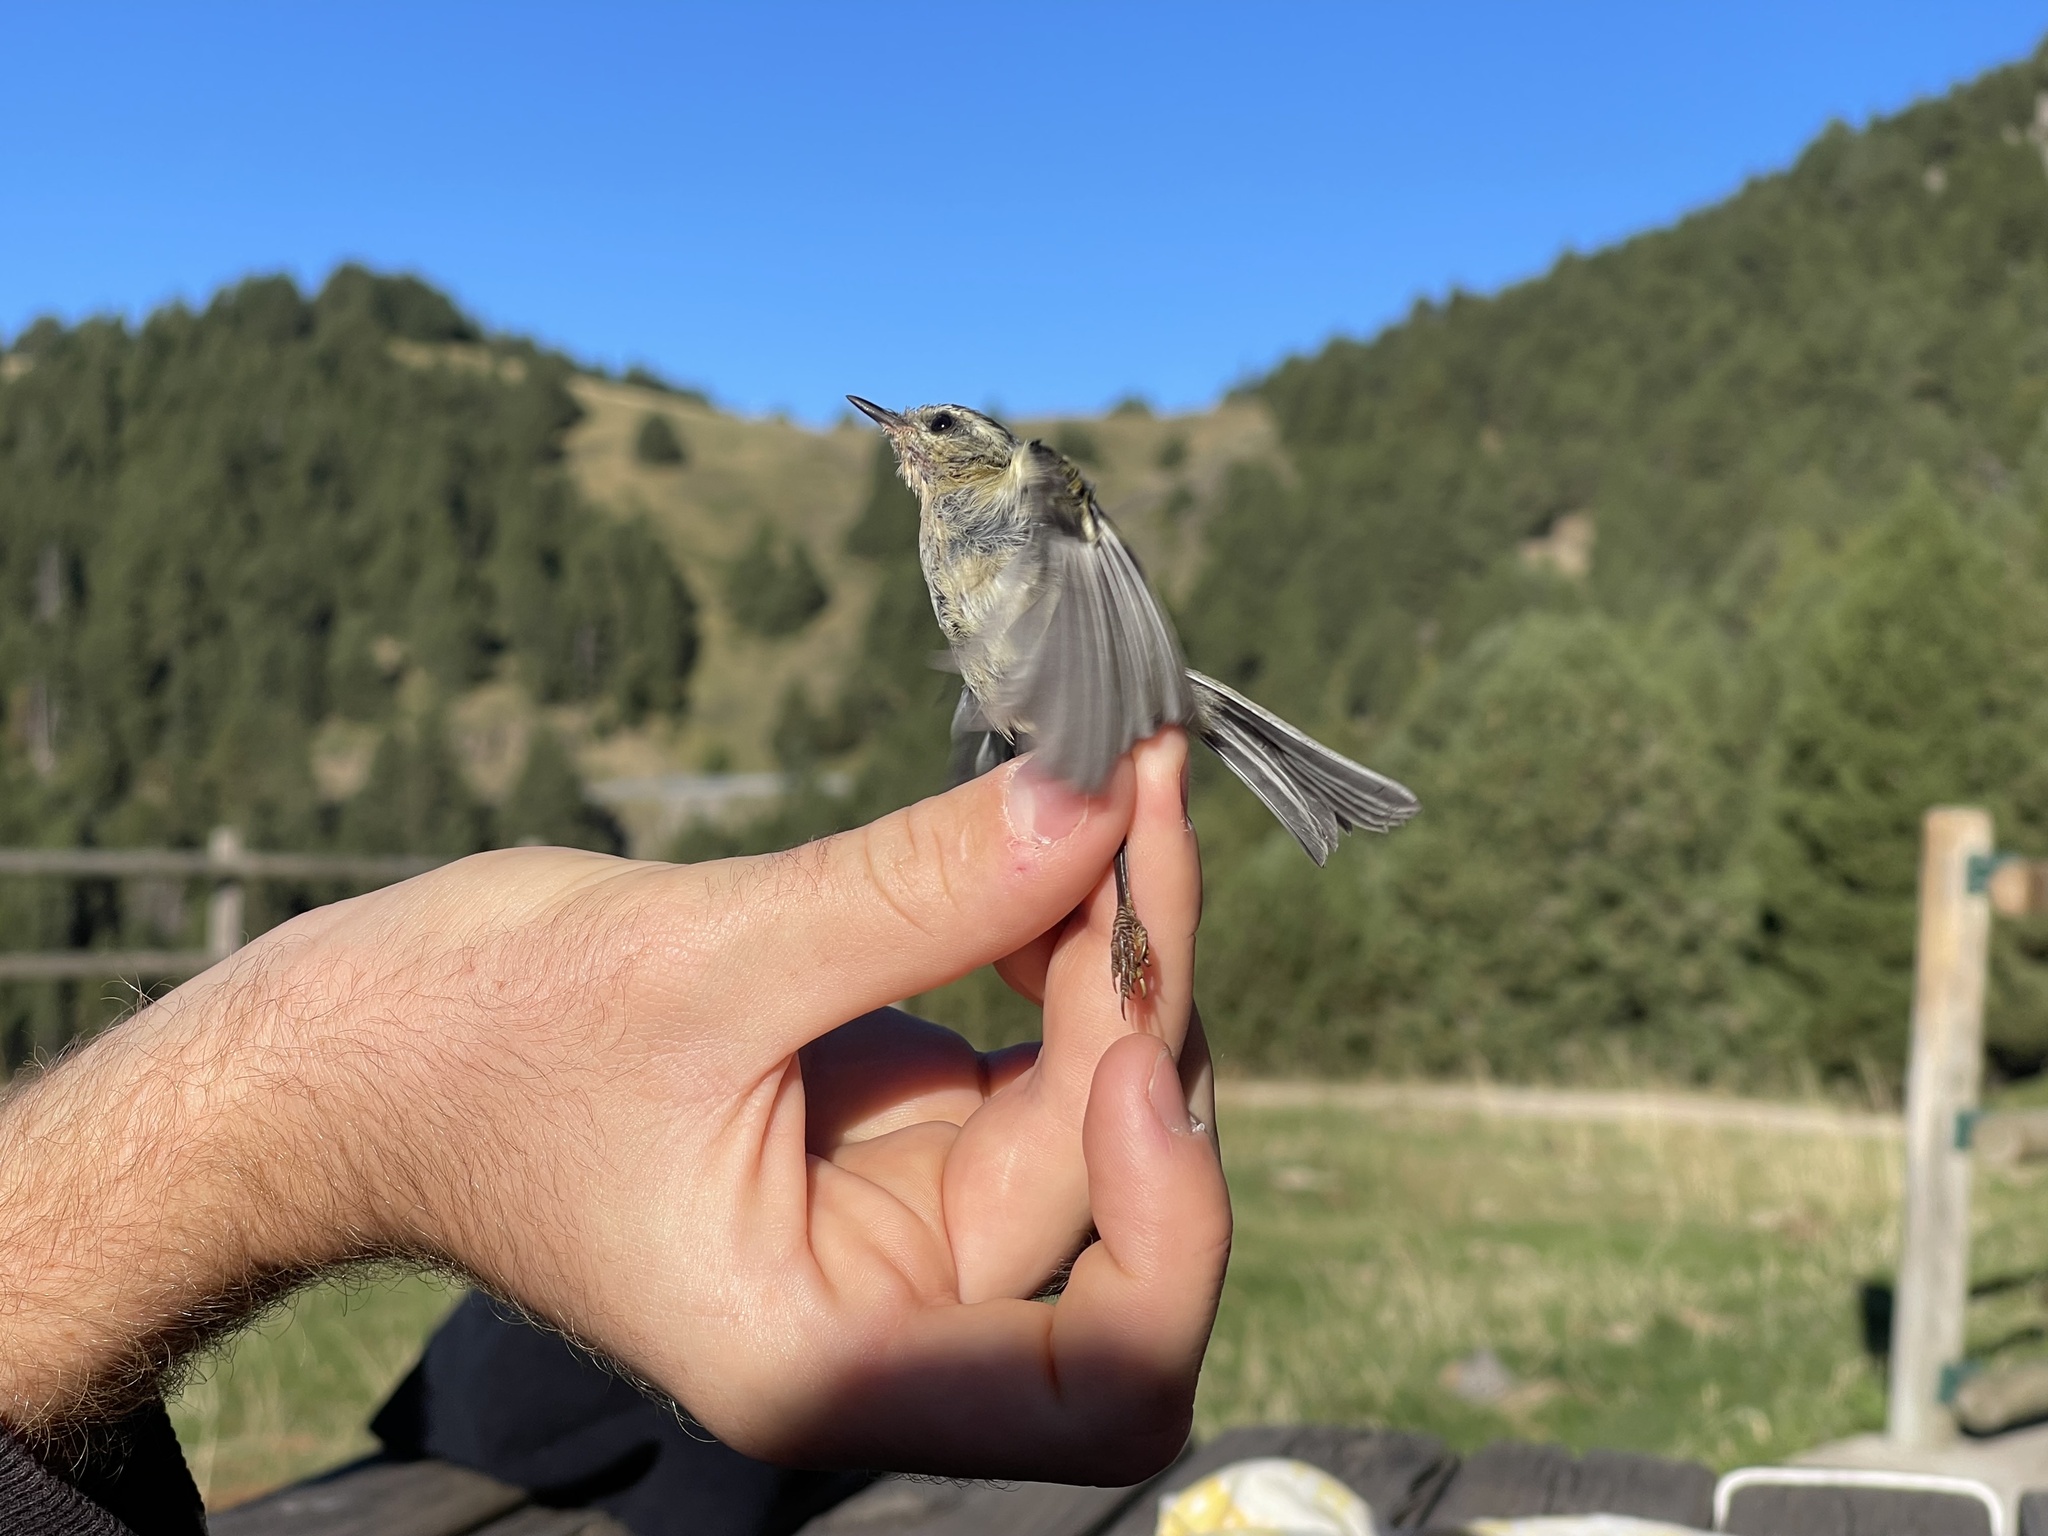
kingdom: Animalia
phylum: Chordata
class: Aves
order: Passeriformes
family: Regulidae
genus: Regulus
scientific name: Regulus ignicapilla
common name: Firecrest
